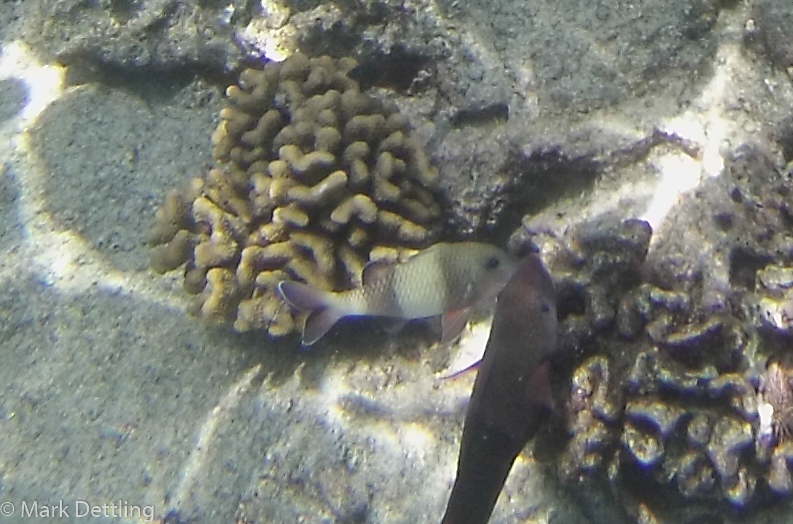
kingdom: Animalia
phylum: Chordata
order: Perciformes
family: Mullidae
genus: Parupeneus
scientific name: Parupeneus insularis
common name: Doublebar goatfish
